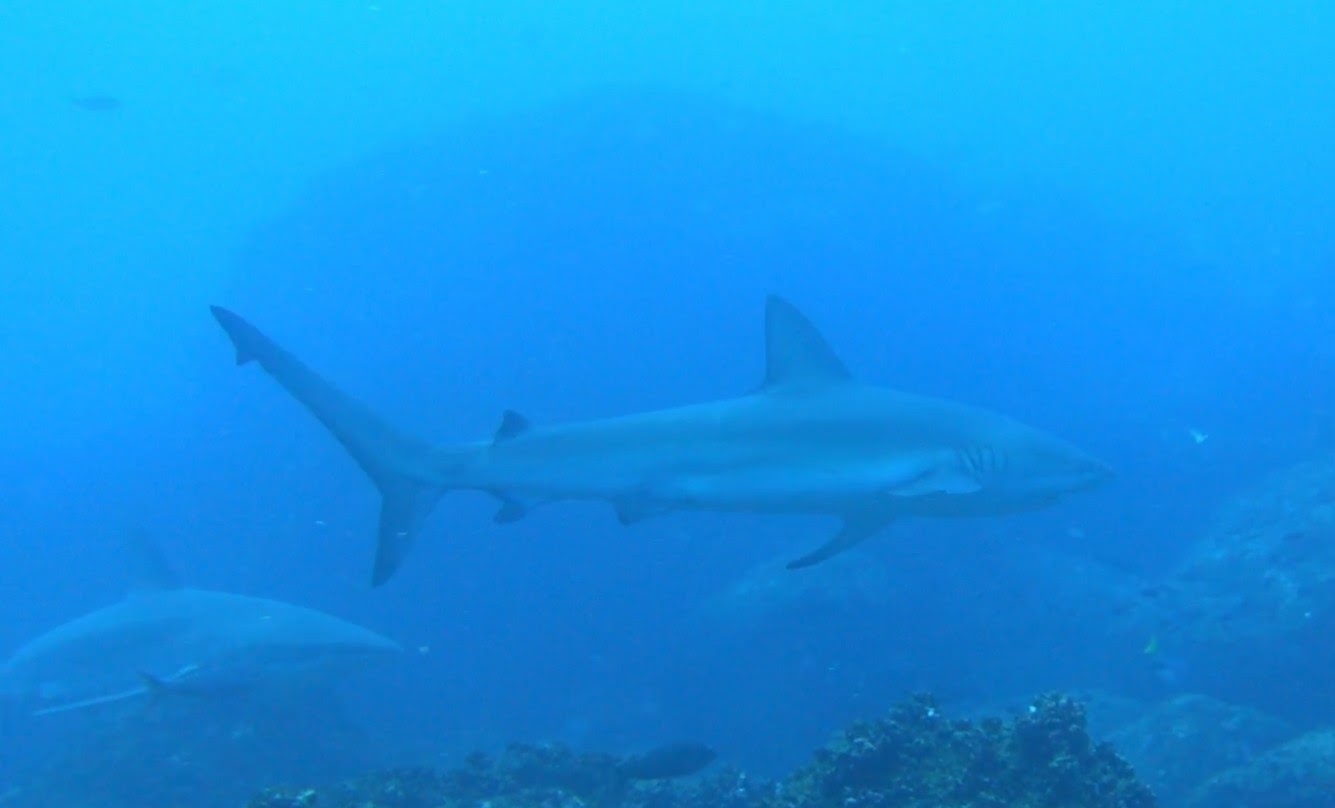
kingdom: Animalia
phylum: Chordata
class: Elasmobranchii
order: Carcharhiniformes
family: Carcharhinidae
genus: Carcharhinus
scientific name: Carcharhinus galapagensis
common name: Galapagos shark
